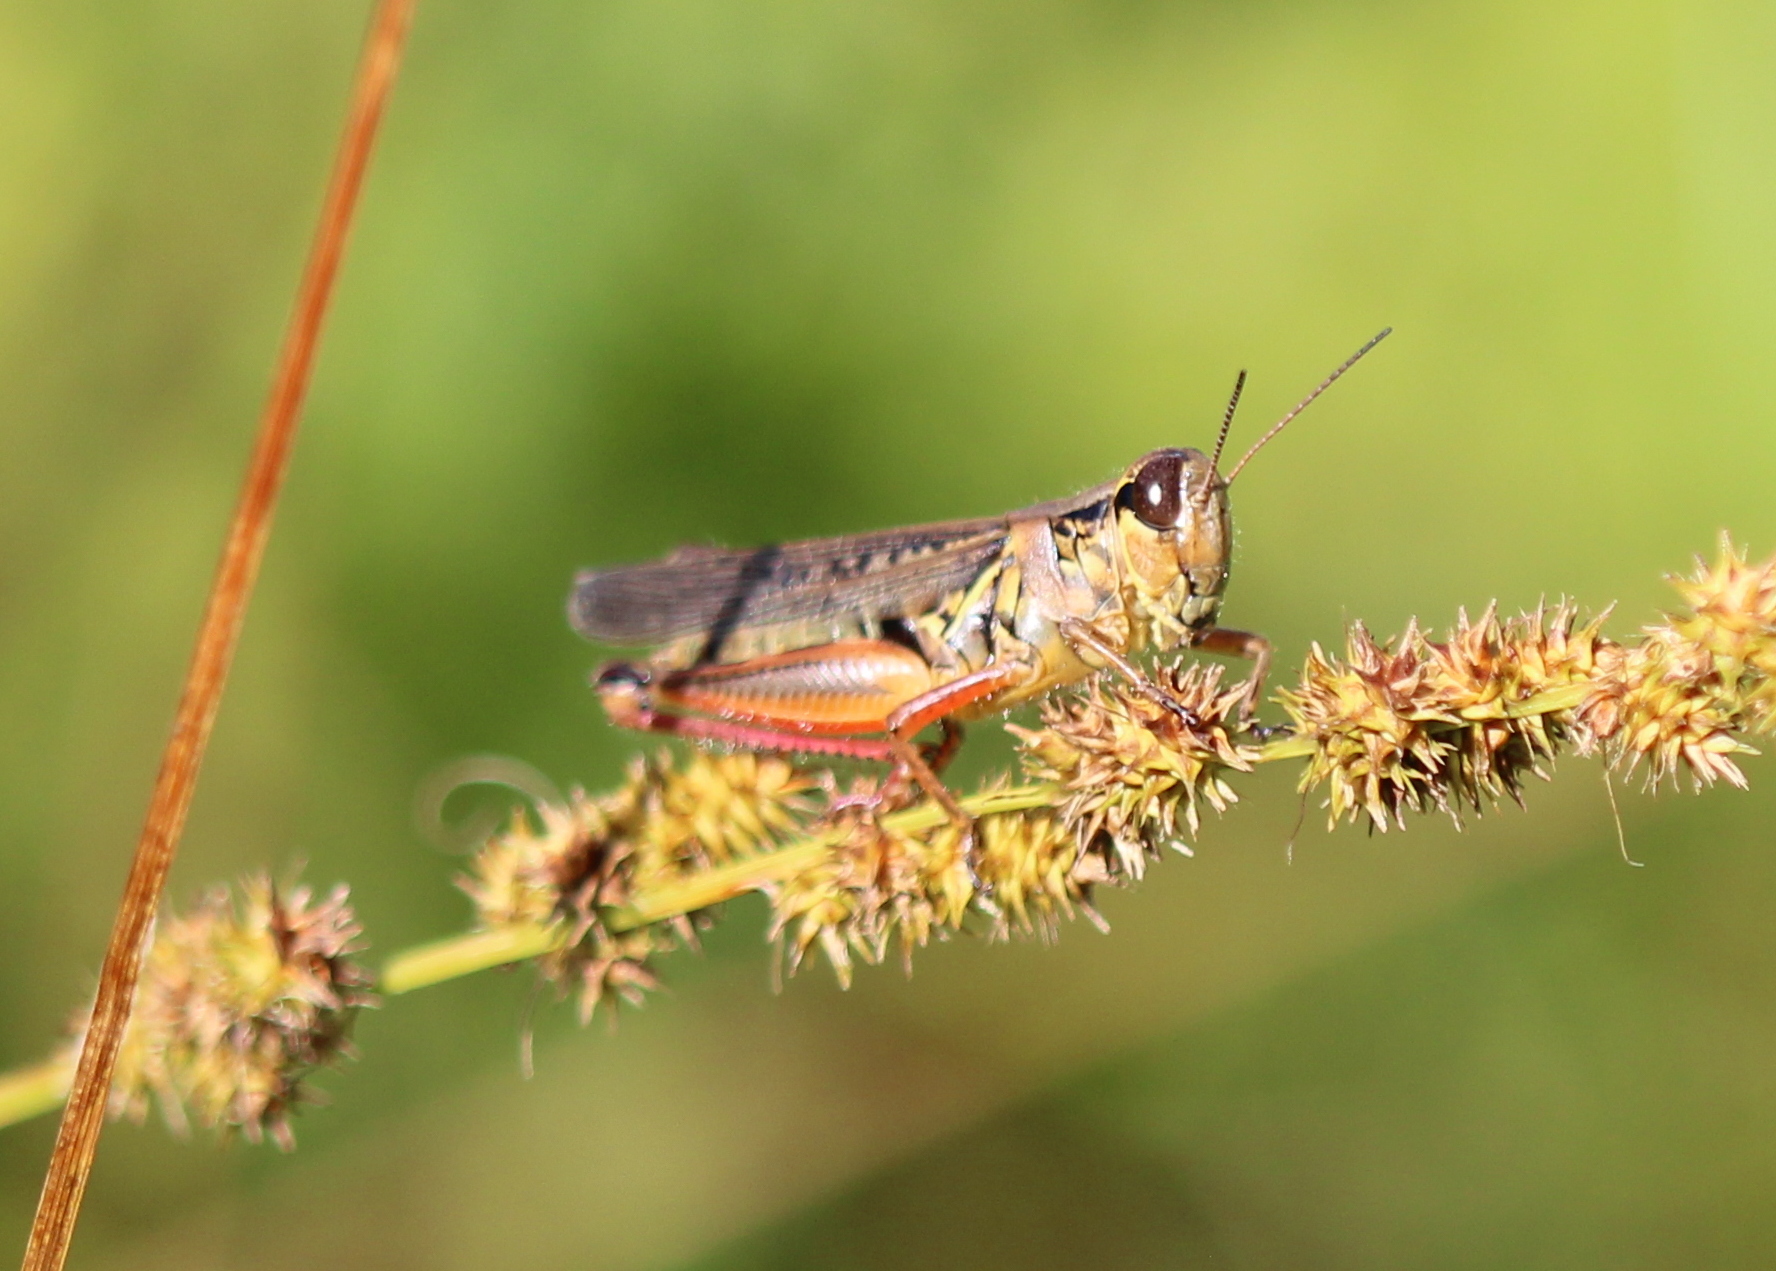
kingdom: Animalia
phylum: Arthropoda
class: Insecta
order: Orthoptera
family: Acrididae
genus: Melanoplus
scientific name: Melanoplus femurrubrum
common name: Red-legged grasshopper
